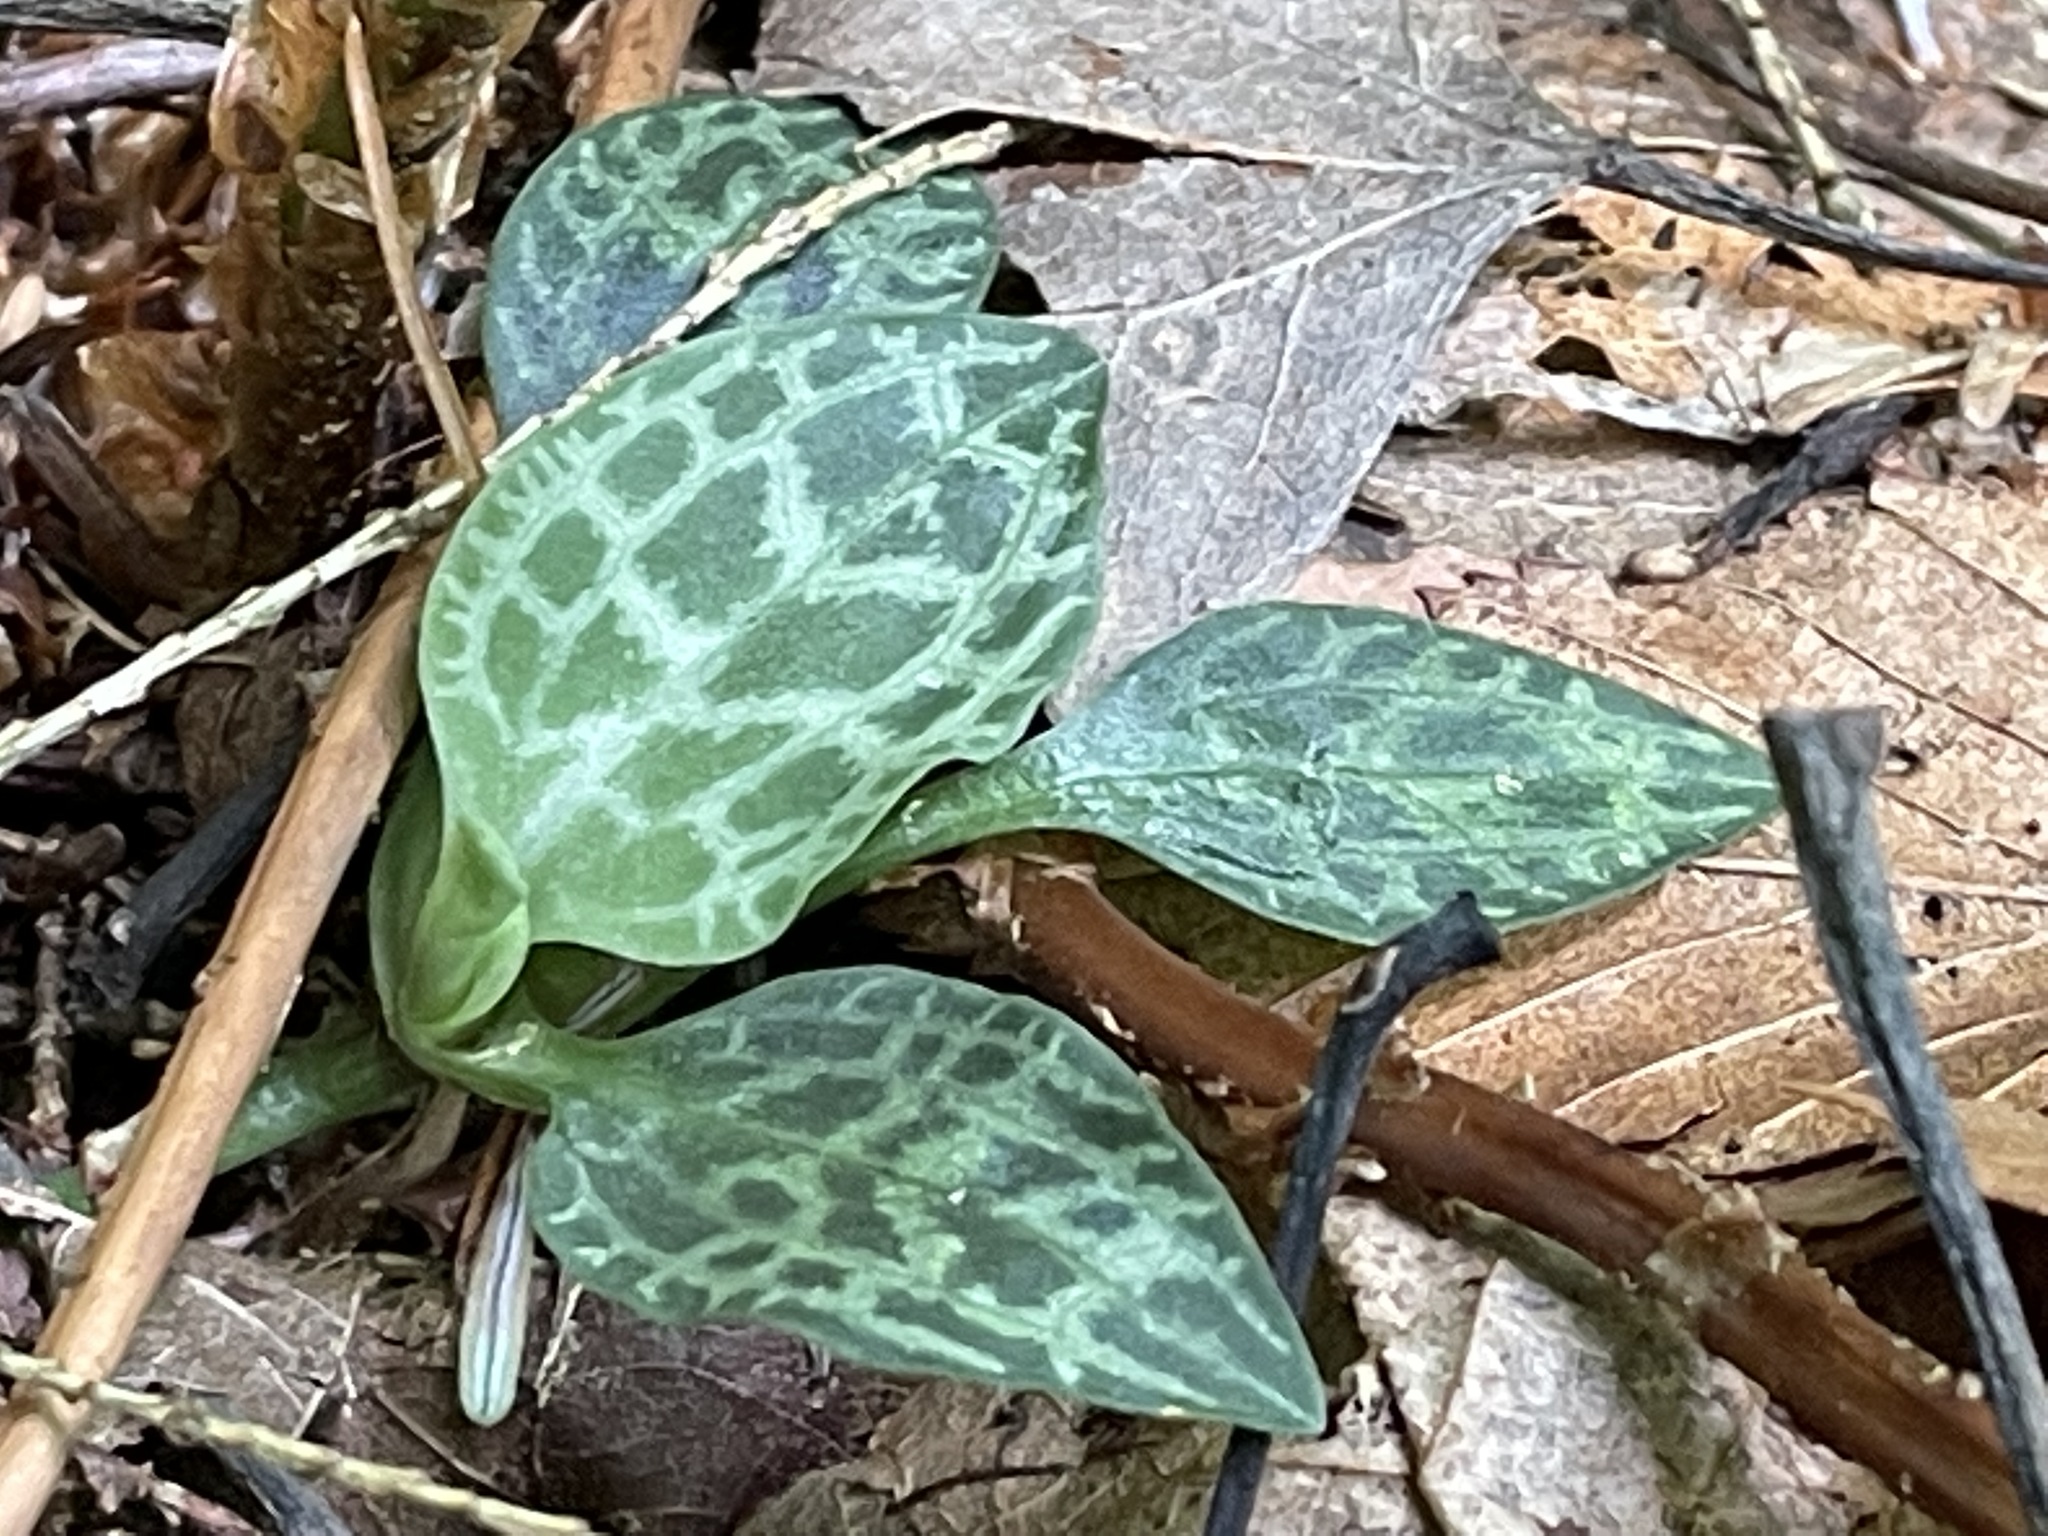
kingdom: Plantae
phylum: Tracheophyta
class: Liliopsida
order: Asparagales
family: Orchidaceae
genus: Goodyera
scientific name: Goodyera tesselata
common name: Checkered rattlesnake-plantain
